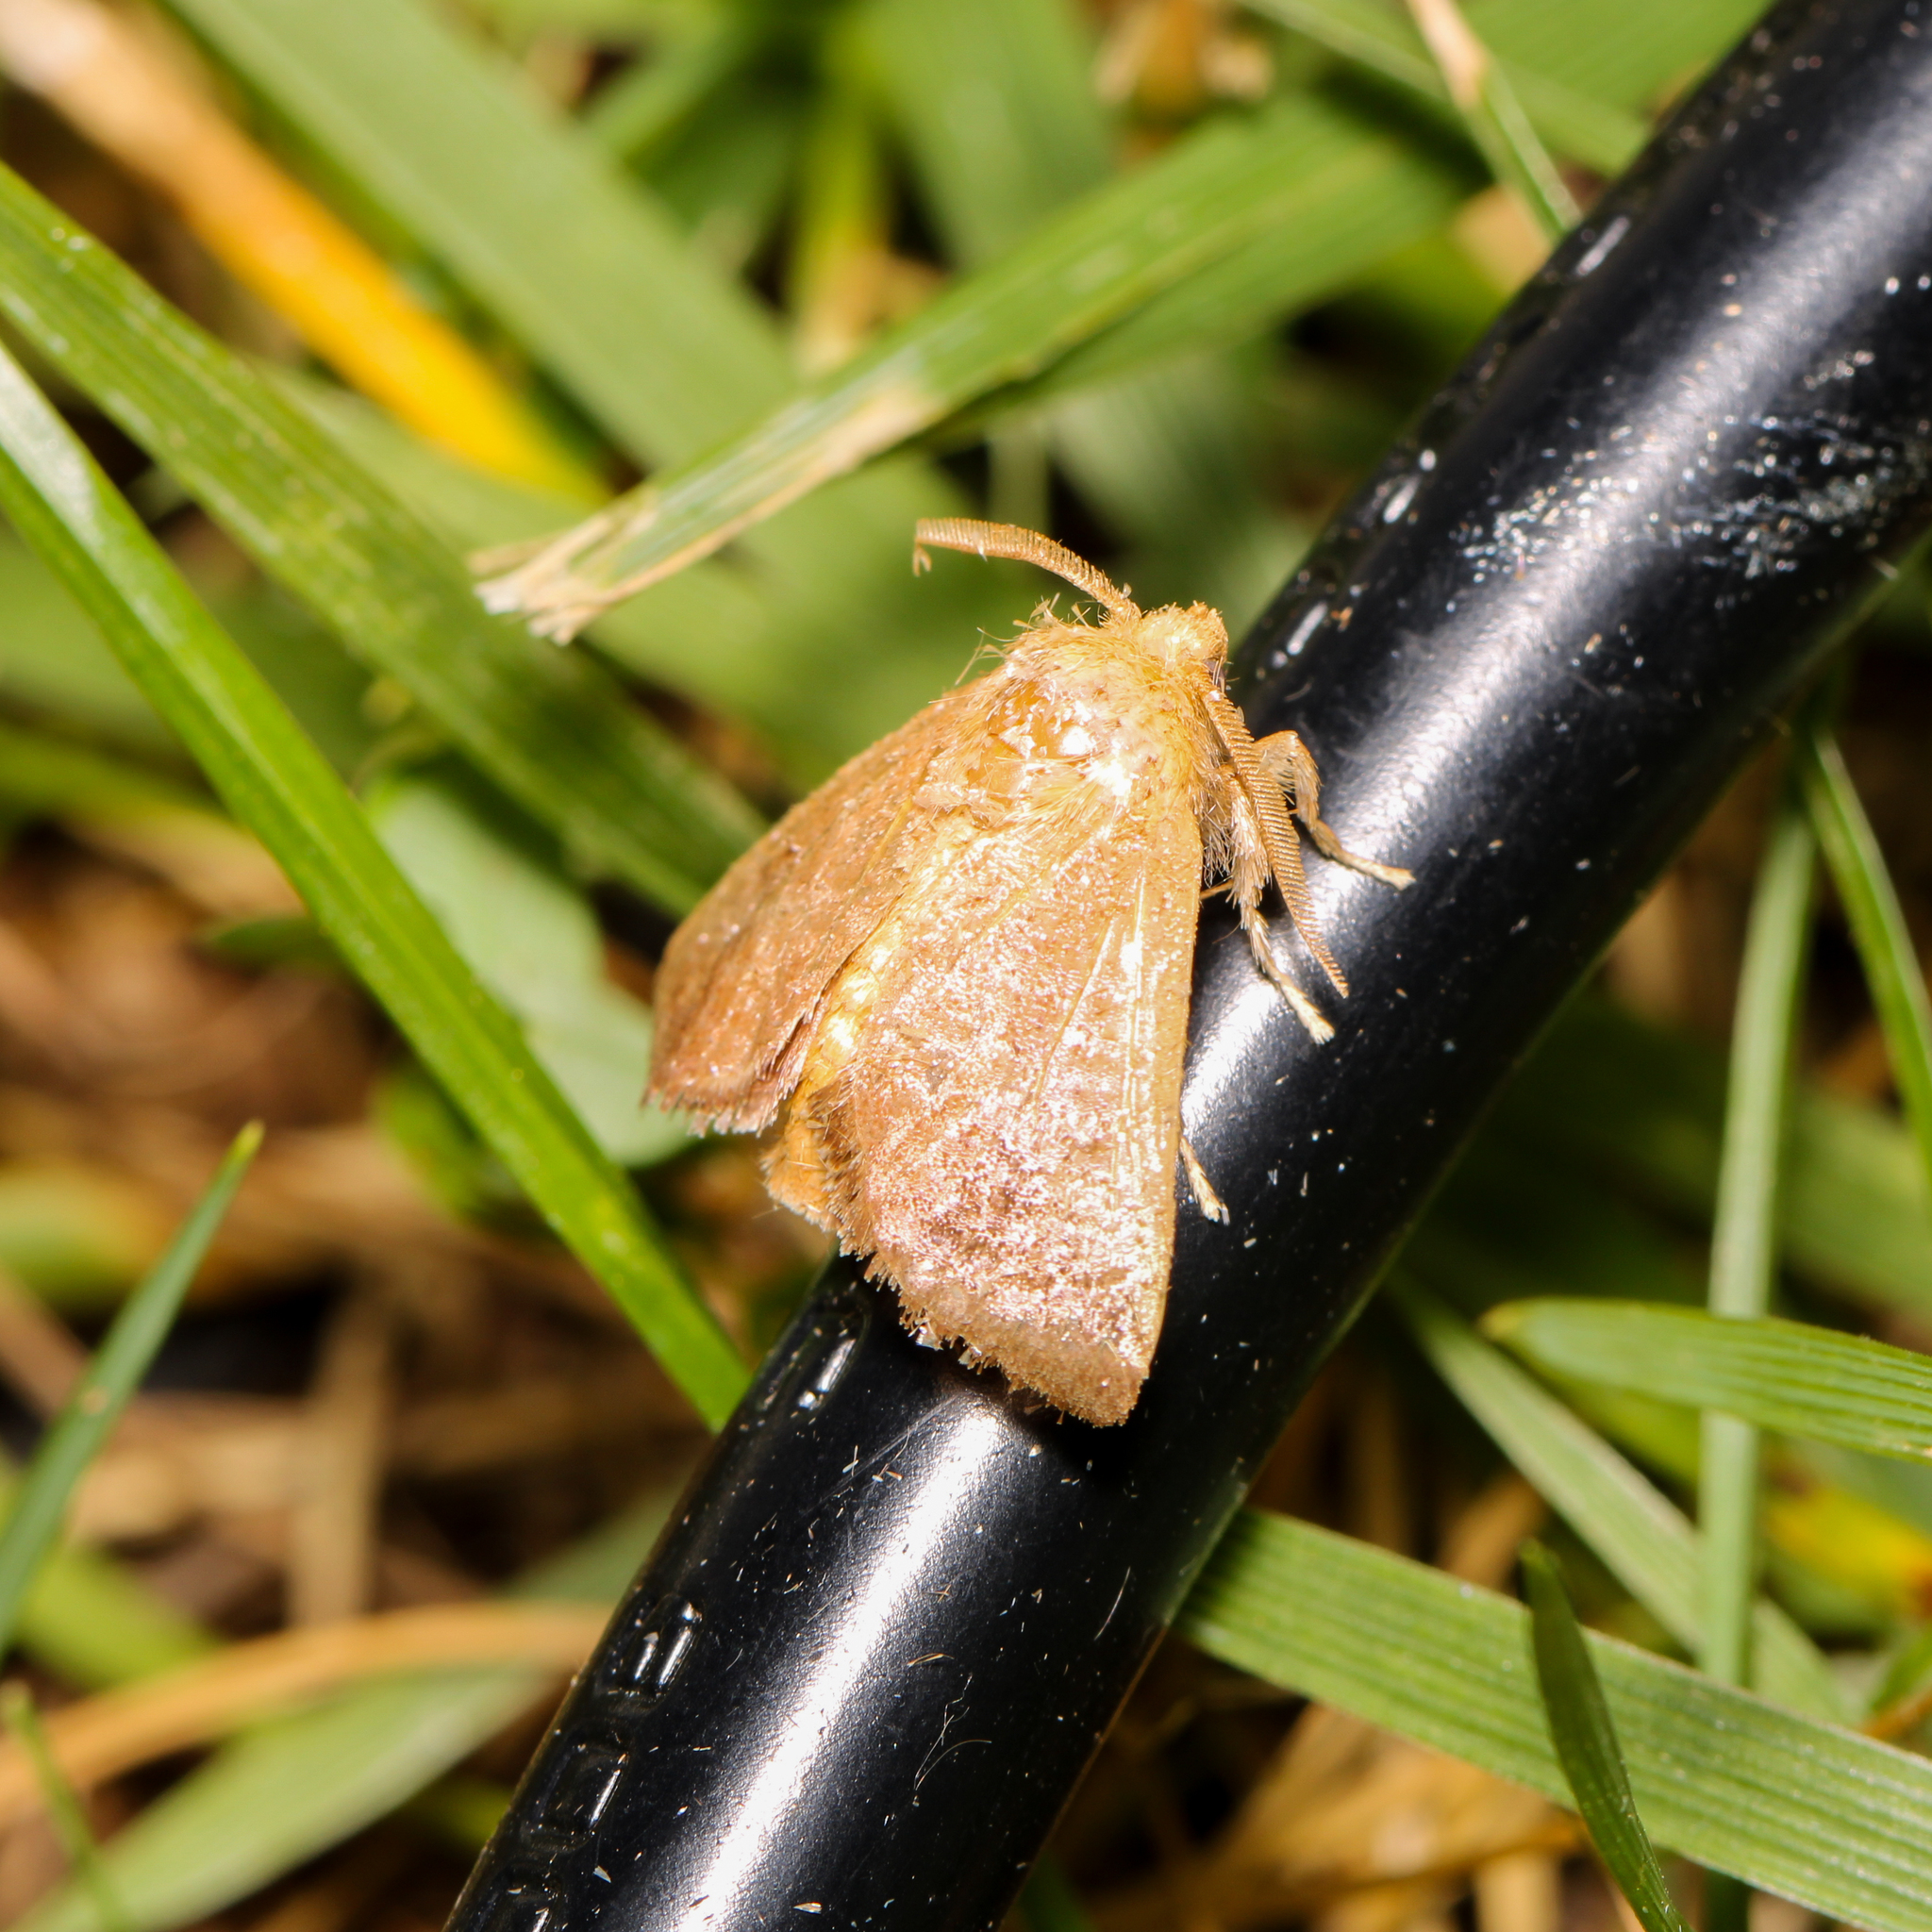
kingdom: Animalia
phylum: Arthropoda
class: Insecta
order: Lepidoptera
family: Limacodidae
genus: Isa
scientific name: Isa textula
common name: Crowned slug moth
